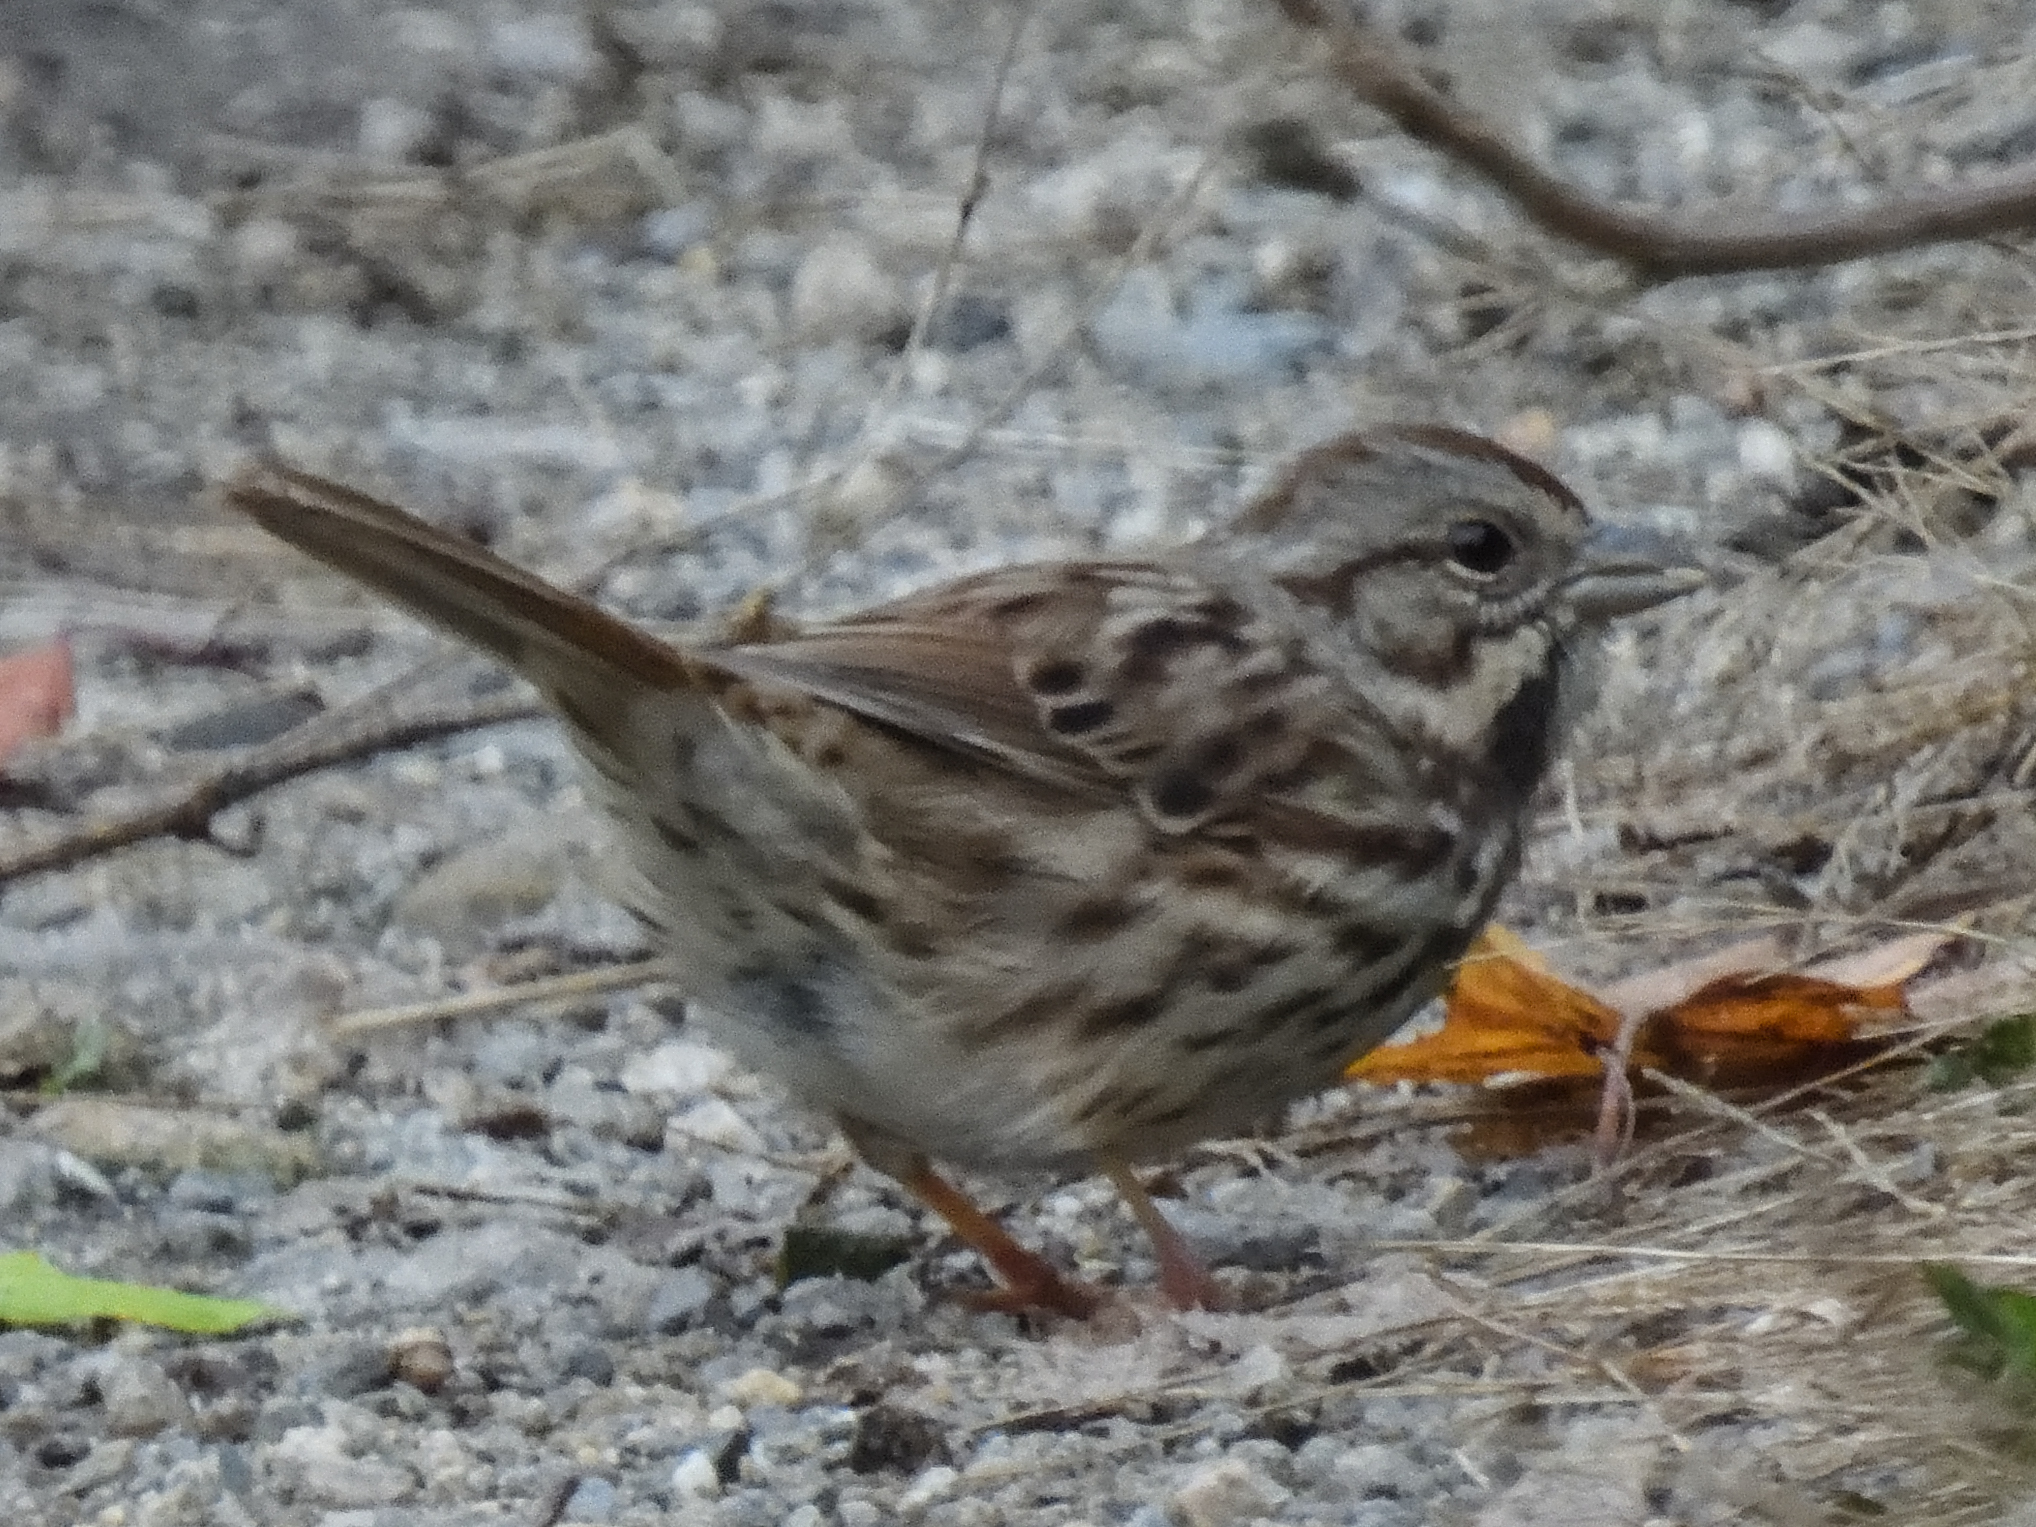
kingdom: Animalia
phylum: Chordata
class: Aves
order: Passeriformes
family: Passerellidae
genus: Melospiza
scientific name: Melospiza melodia
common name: Song sparrow
